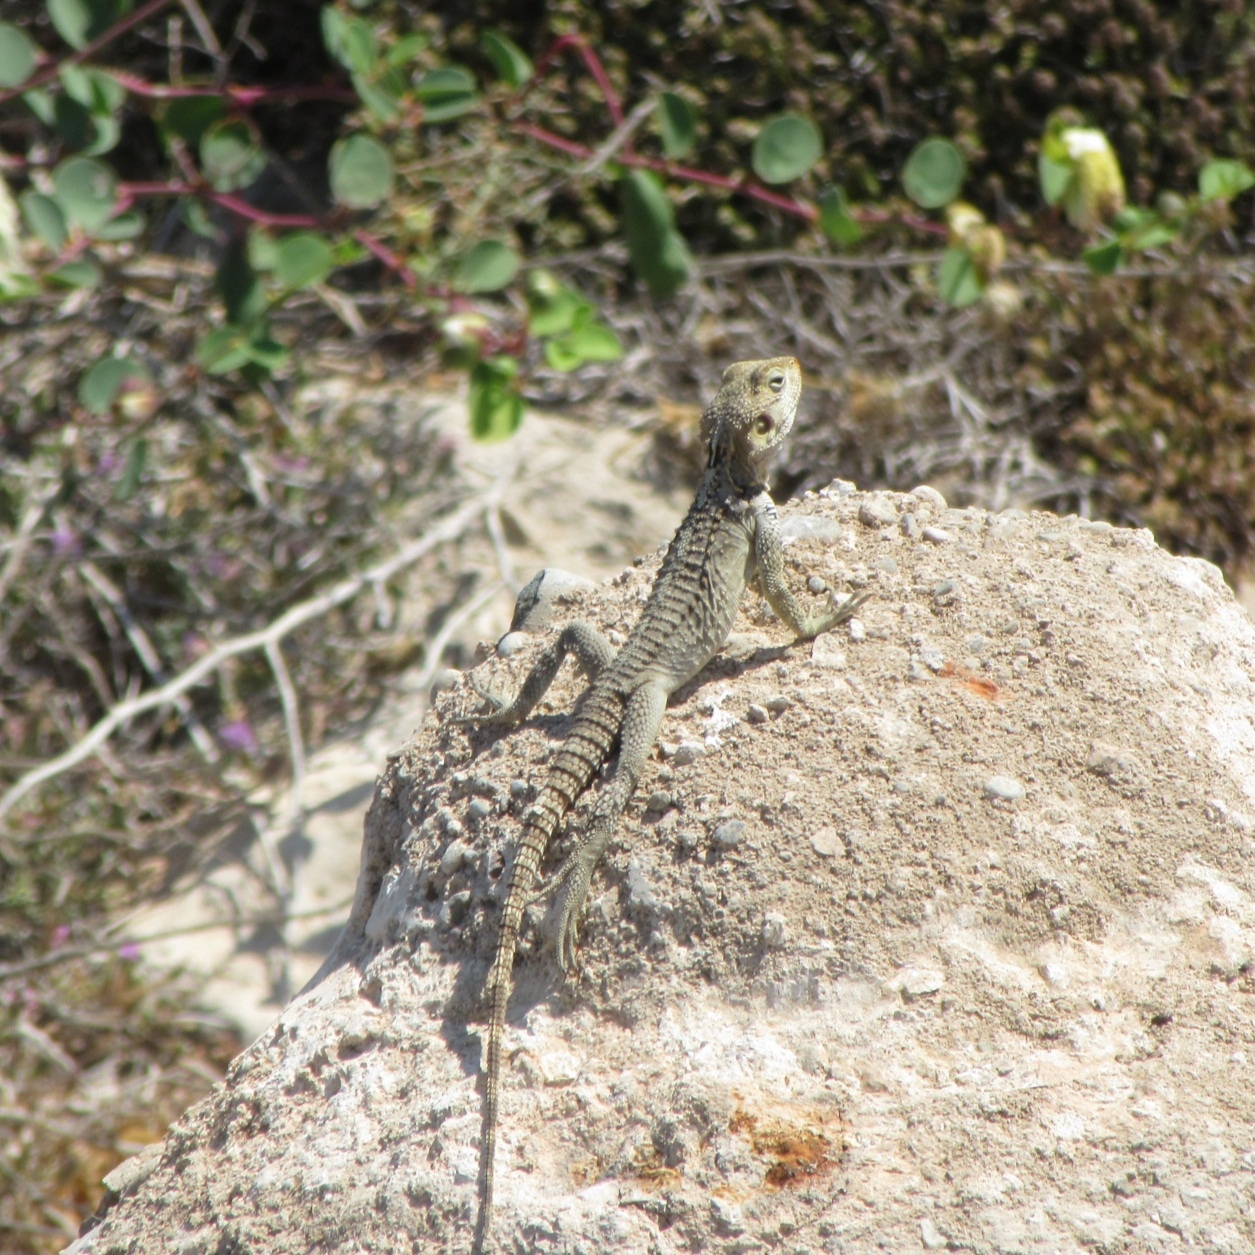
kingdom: Animalia
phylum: Chordata
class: Squamata
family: Agamidae
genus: Laudakia
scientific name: Laudakia
